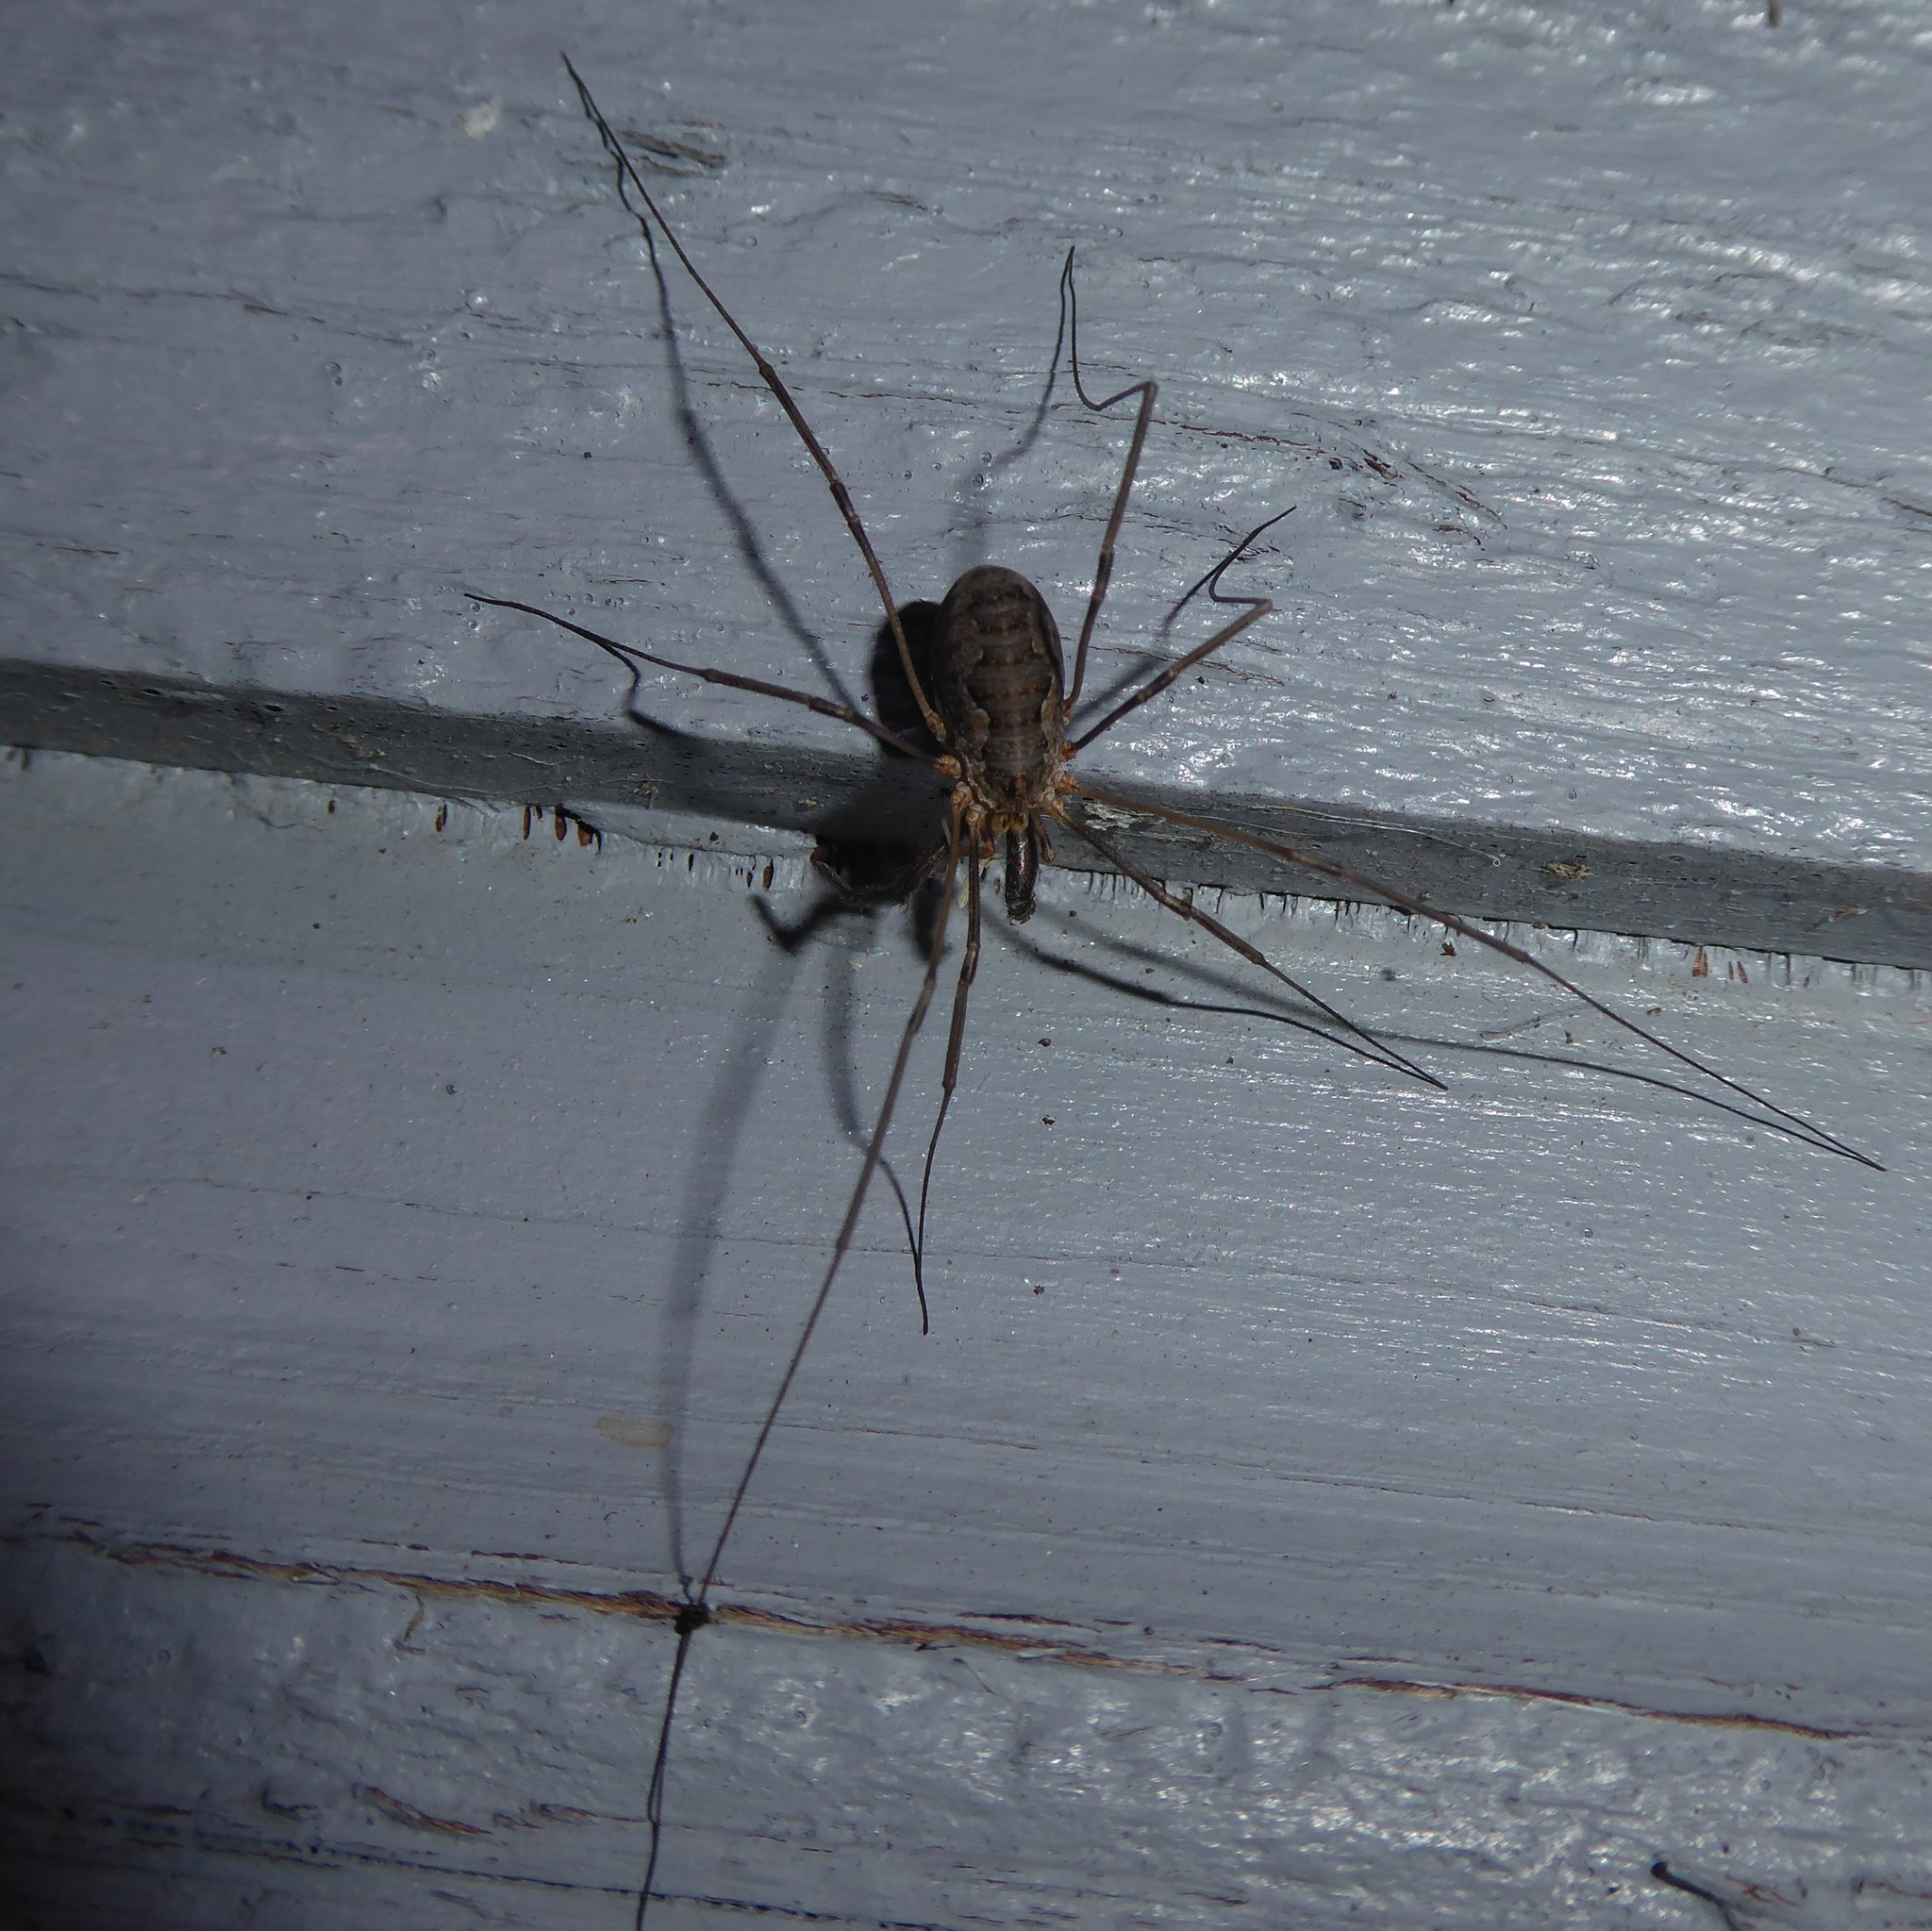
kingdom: Animalia
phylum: Arthropoda
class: Arachnida
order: Opiliones
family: Phalangiidae
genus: Phalangium
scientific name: Phalangium opilio
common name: Daddy longleg
